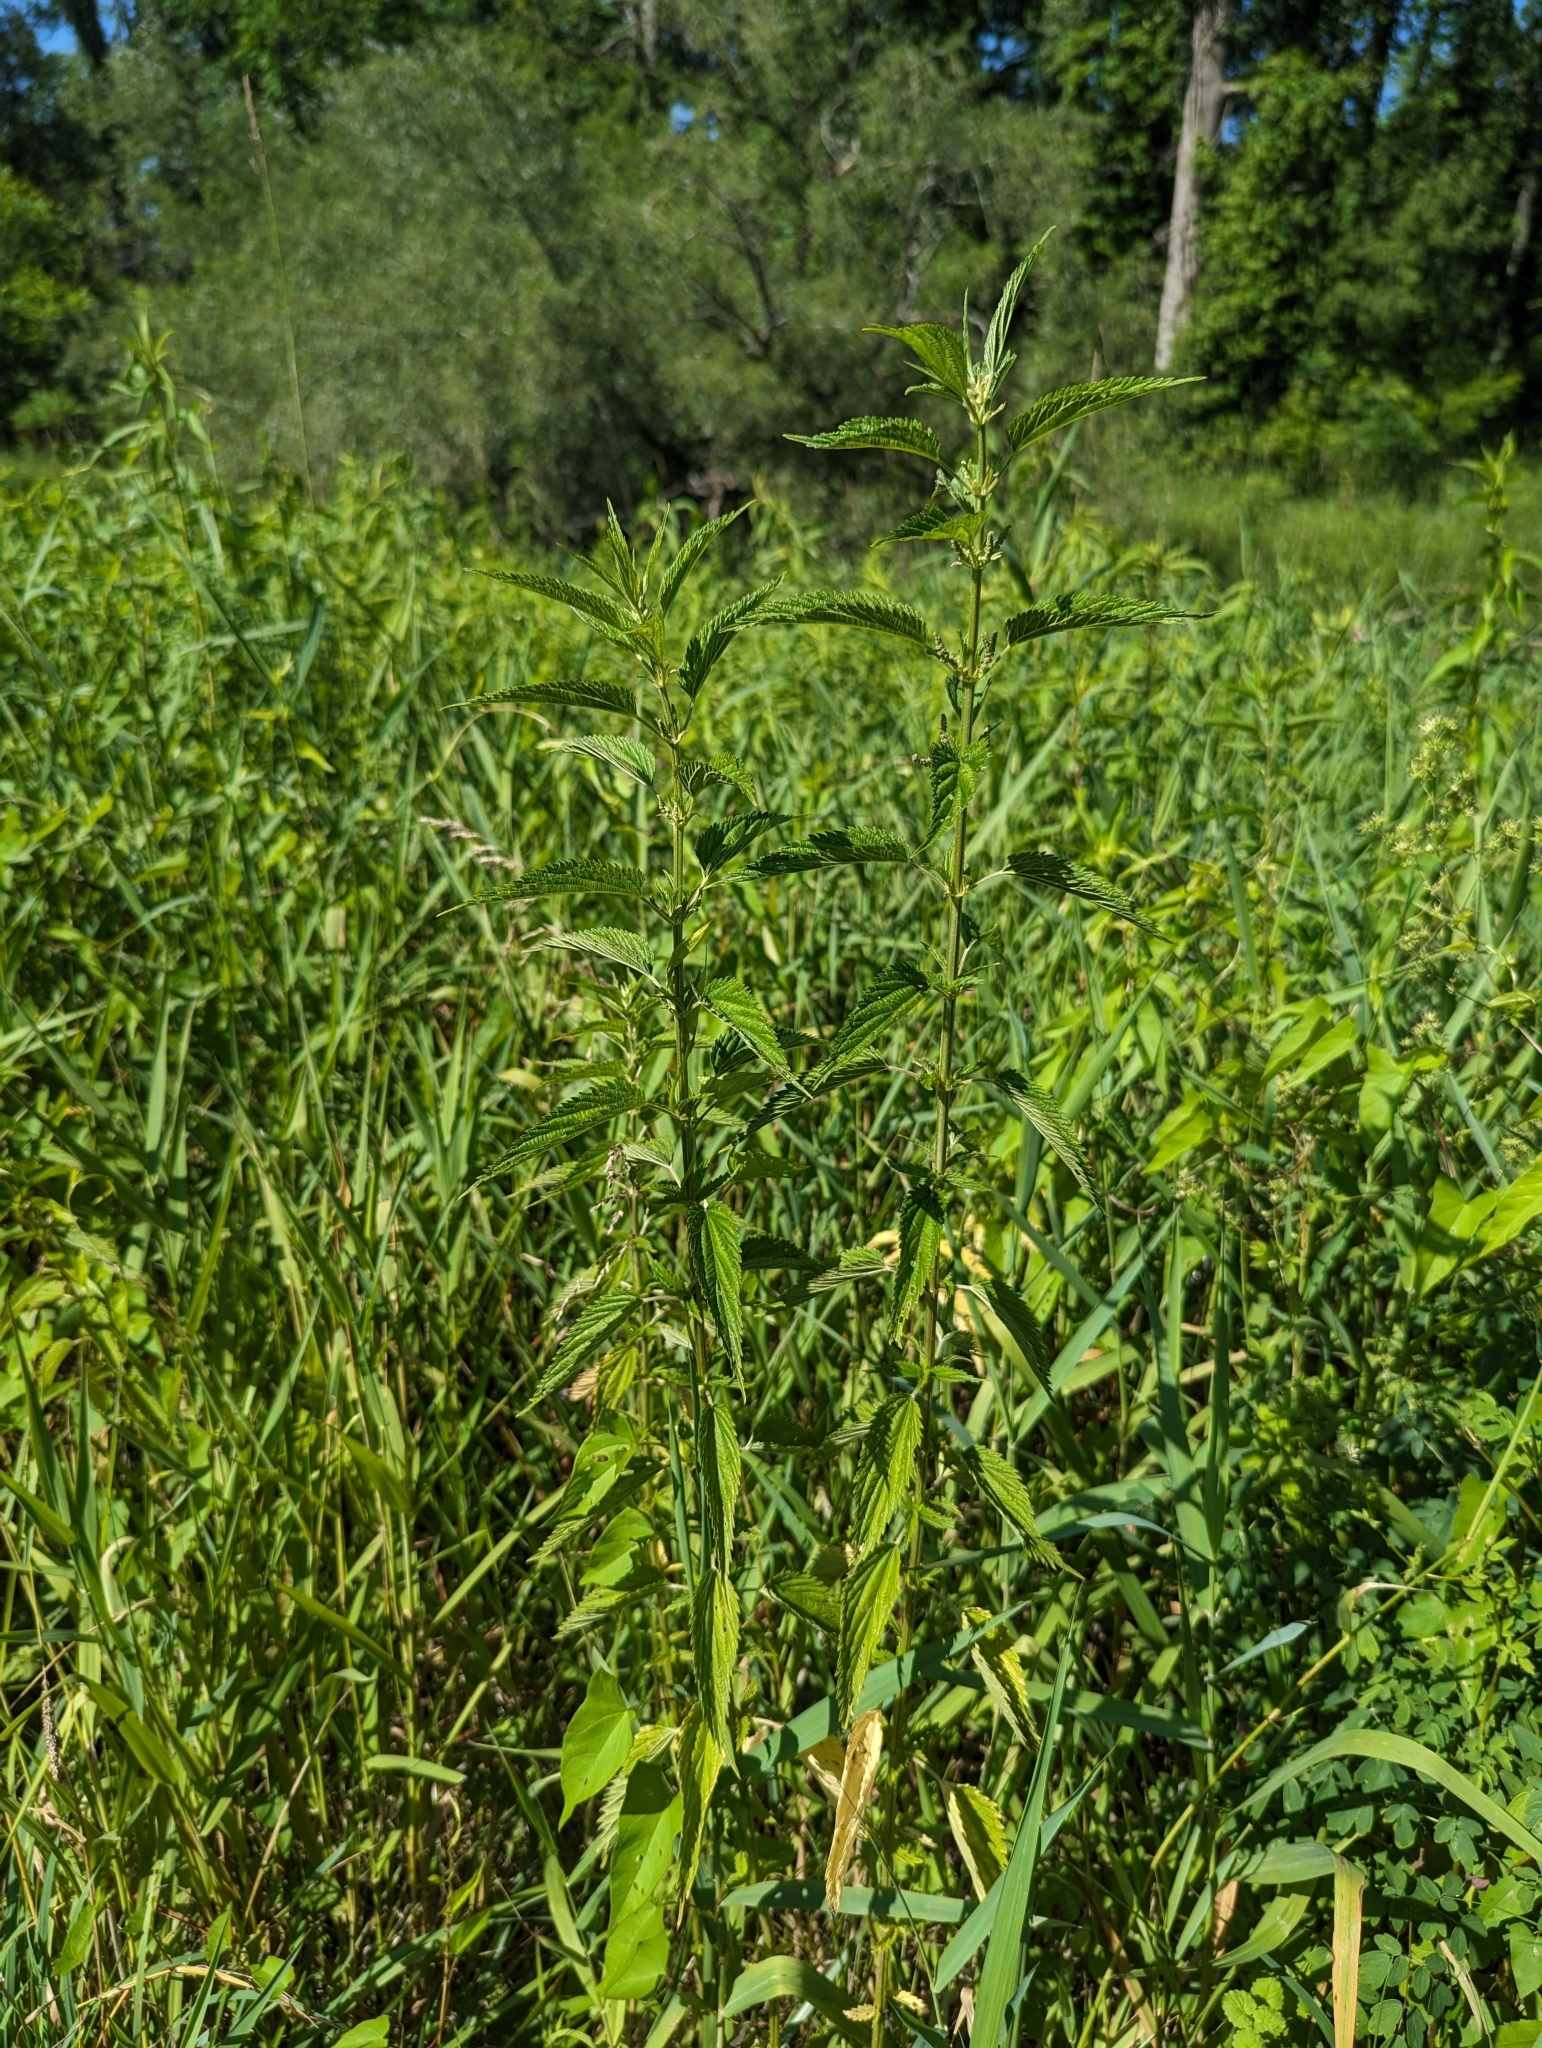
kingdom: Plantae
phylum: Tracheophyta
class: Magnoliopsida
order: Rosales
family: Urticaceae
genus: Urtica
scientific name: Urtica dioica
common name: Common nettle
